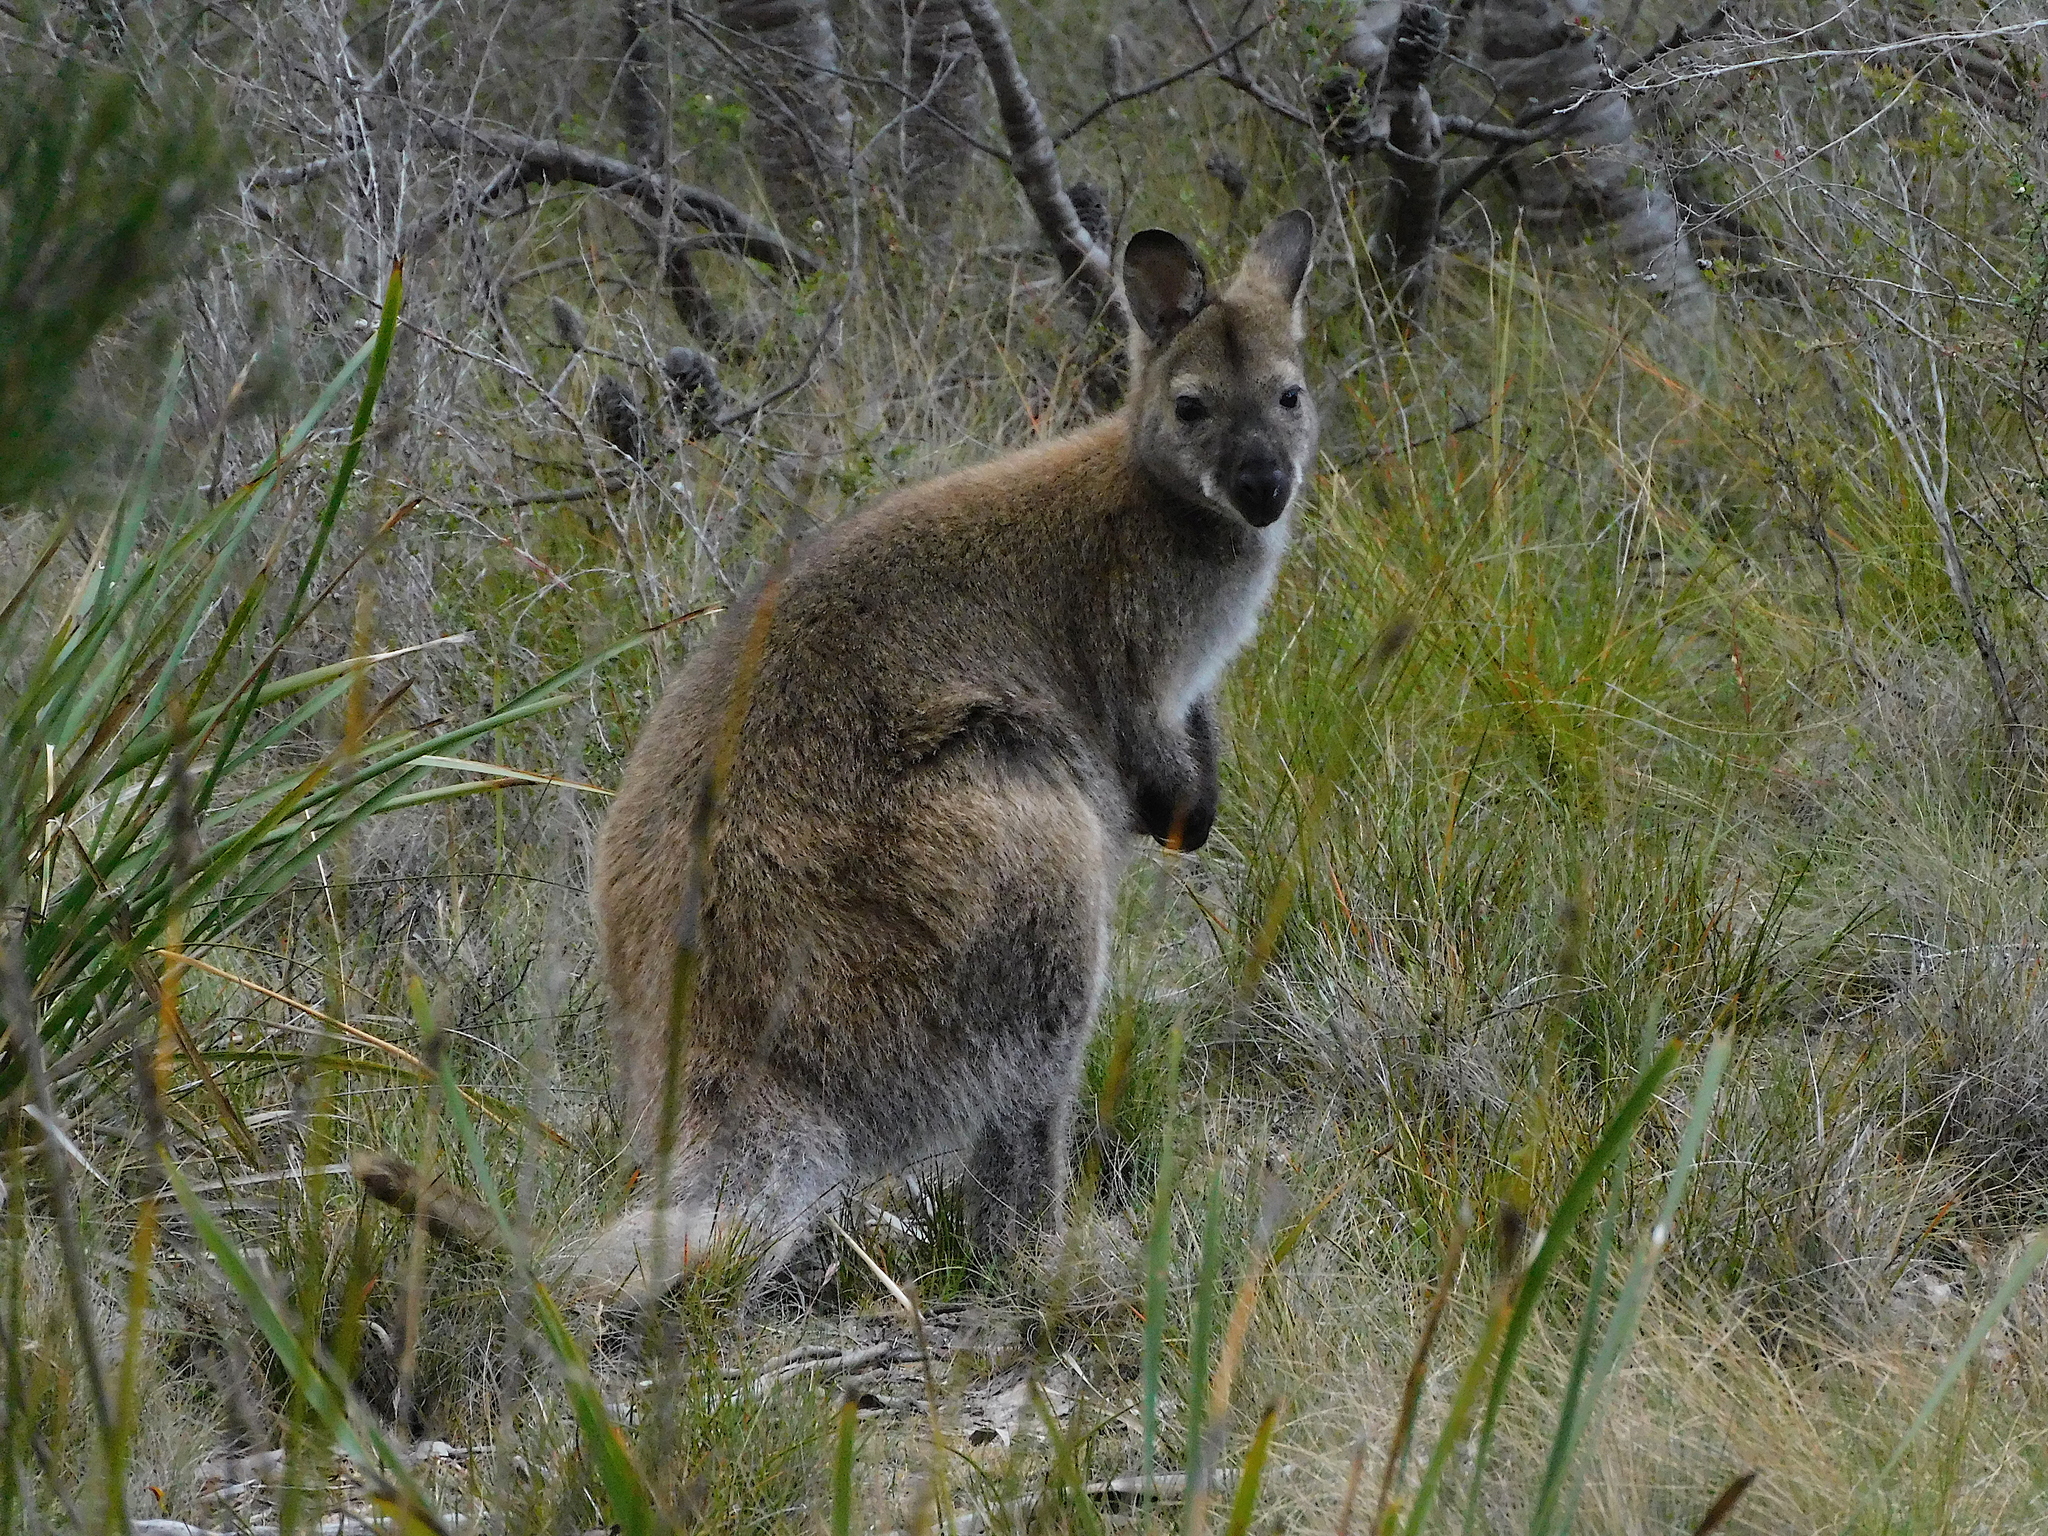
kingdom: Animalia
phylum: Chordata
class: Mammalia
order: Diprotodontia
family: Macropodidae
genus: Notamacropus
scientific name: Notamacropus rufogriseus
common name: Red-necked wallaby
